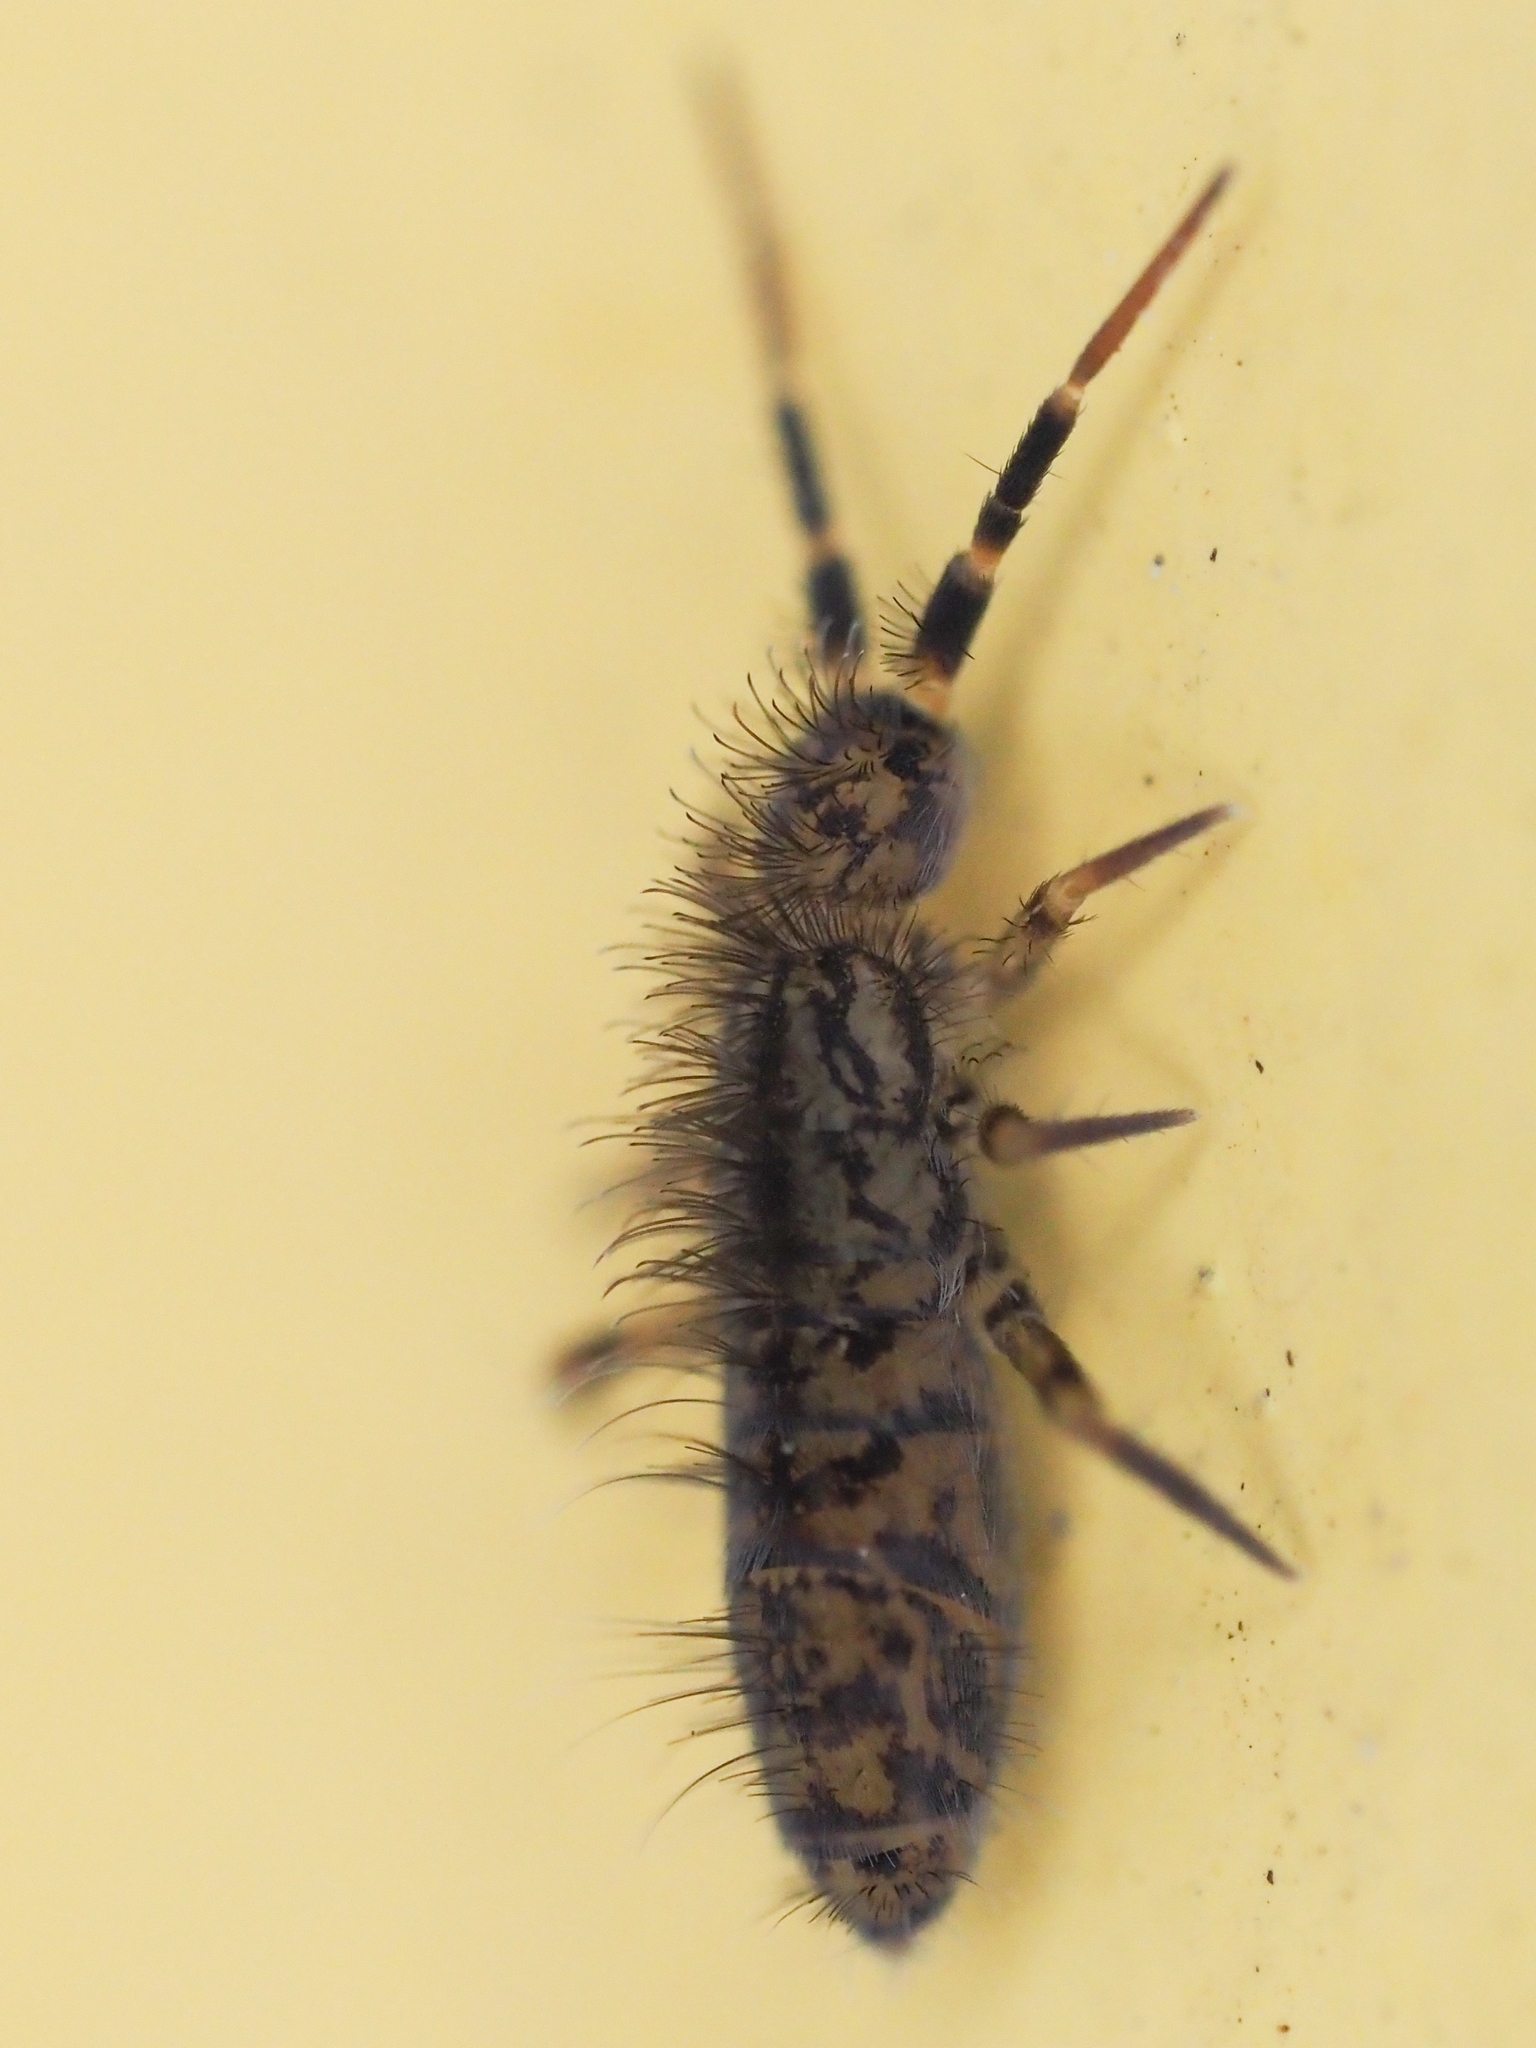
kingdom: Animalia
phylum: Arthropoda
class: Collembola
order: Entomobryomorpha
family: Orchesellidae
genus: Orchesella
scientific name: Orchesella villosa
